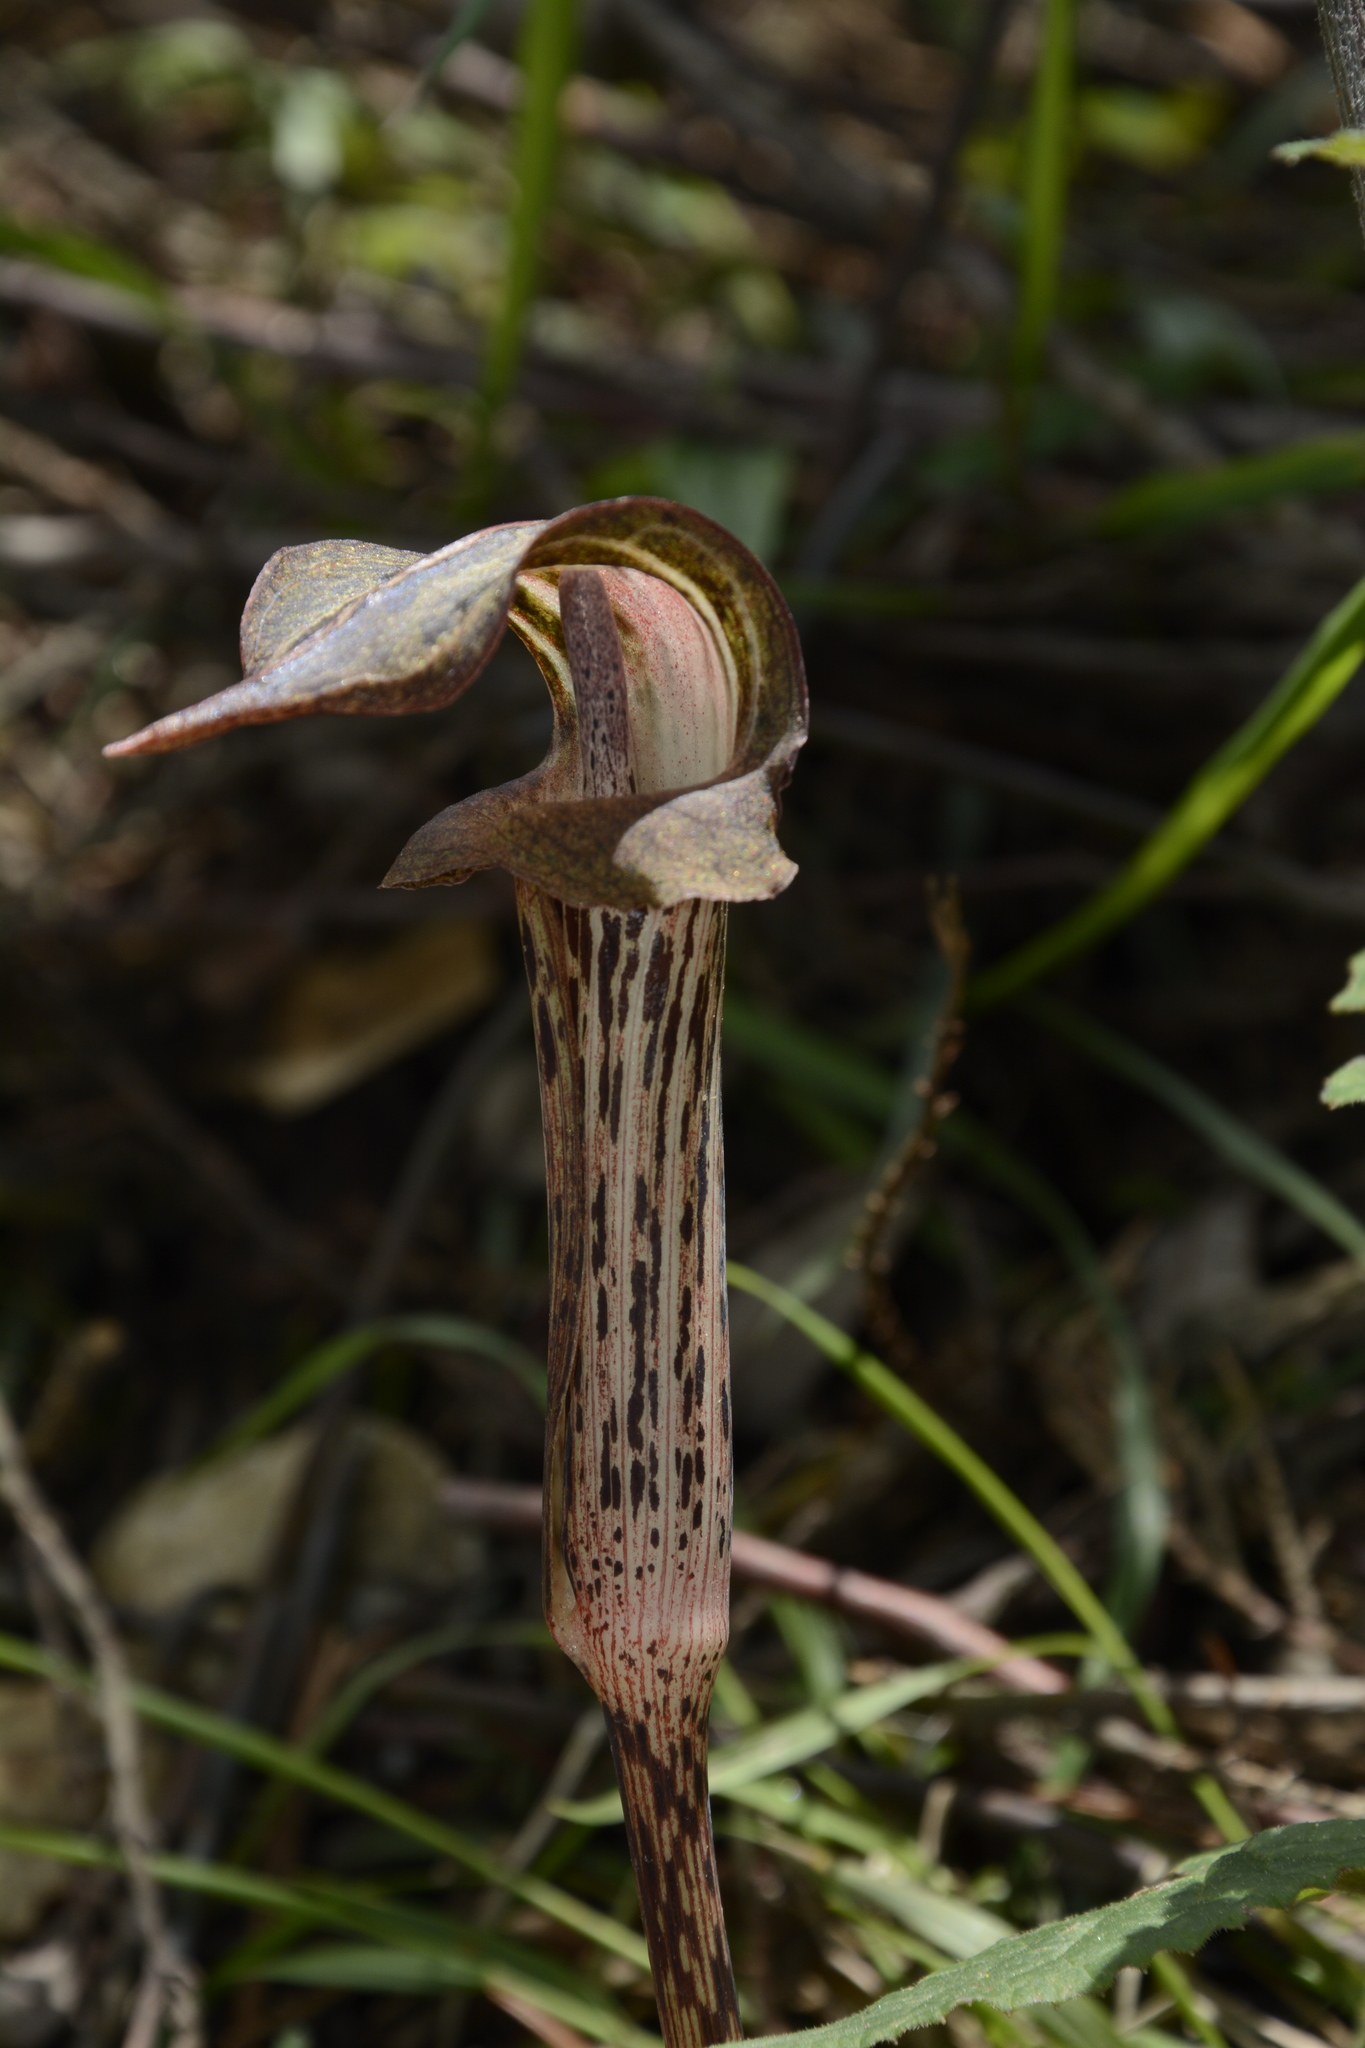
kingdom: Plantae
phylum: Tracheophyta
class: Liliopsida
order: Alismatales
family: Araceae
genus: Arisaema
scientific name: Arisaema nepenthoides
